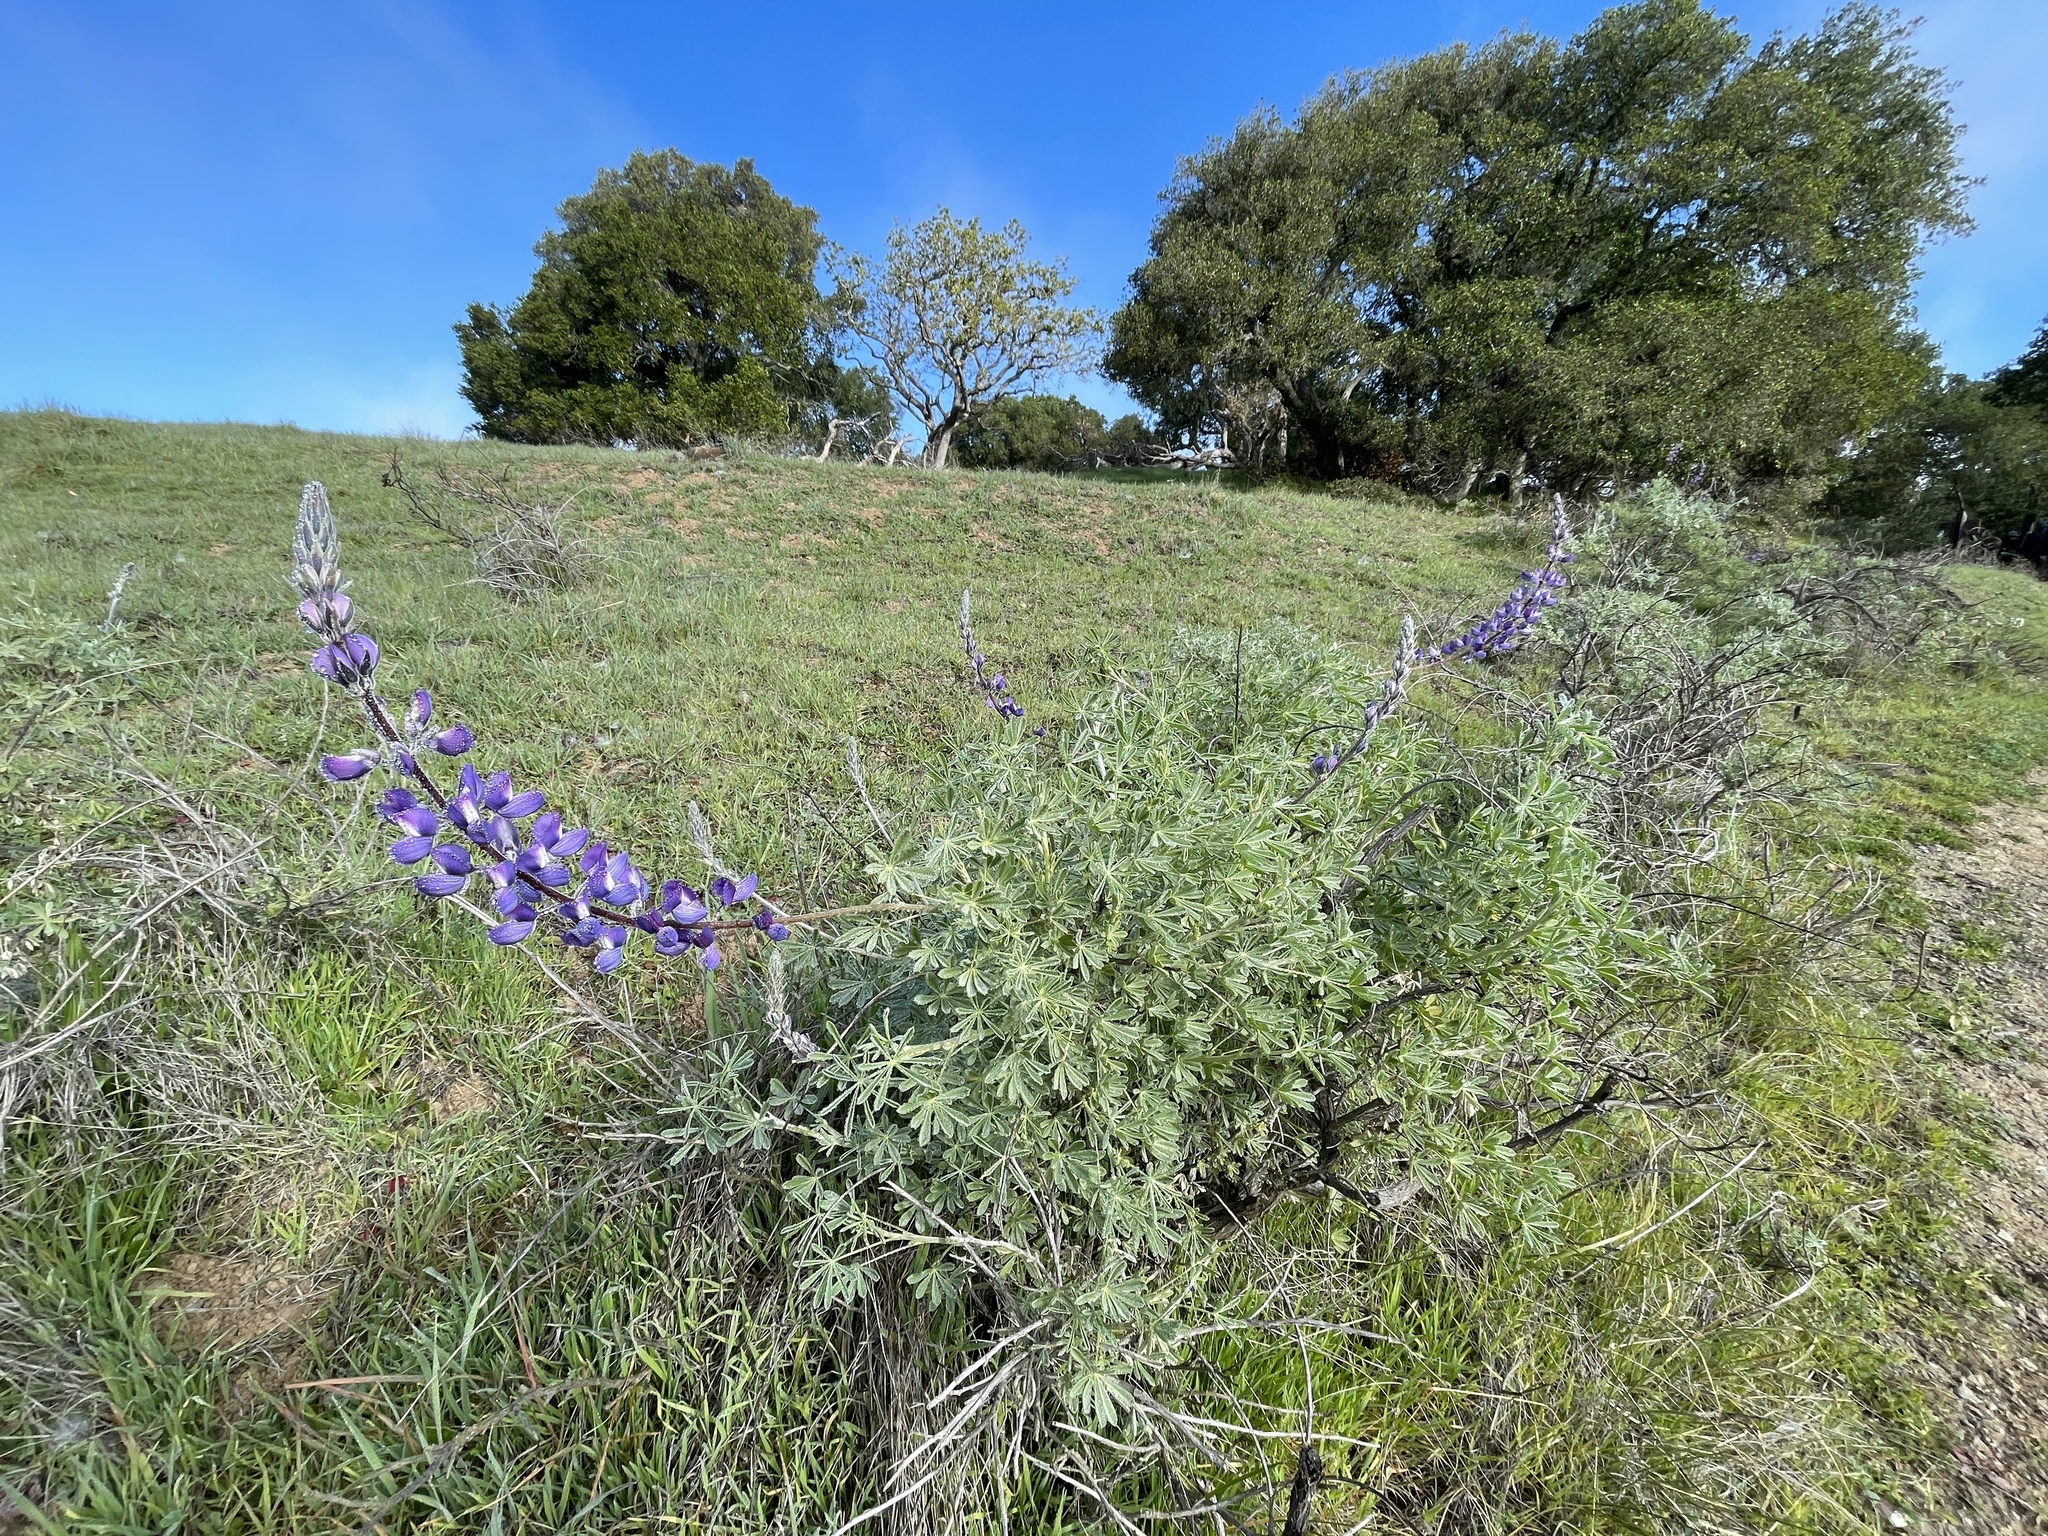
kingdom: Plantae
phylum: Tracheophyta
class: Magnoliopsida
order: Fabales
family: Fabaceae
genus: Lupinus
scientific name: Lupinus albifrons
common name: Foothill lupine
